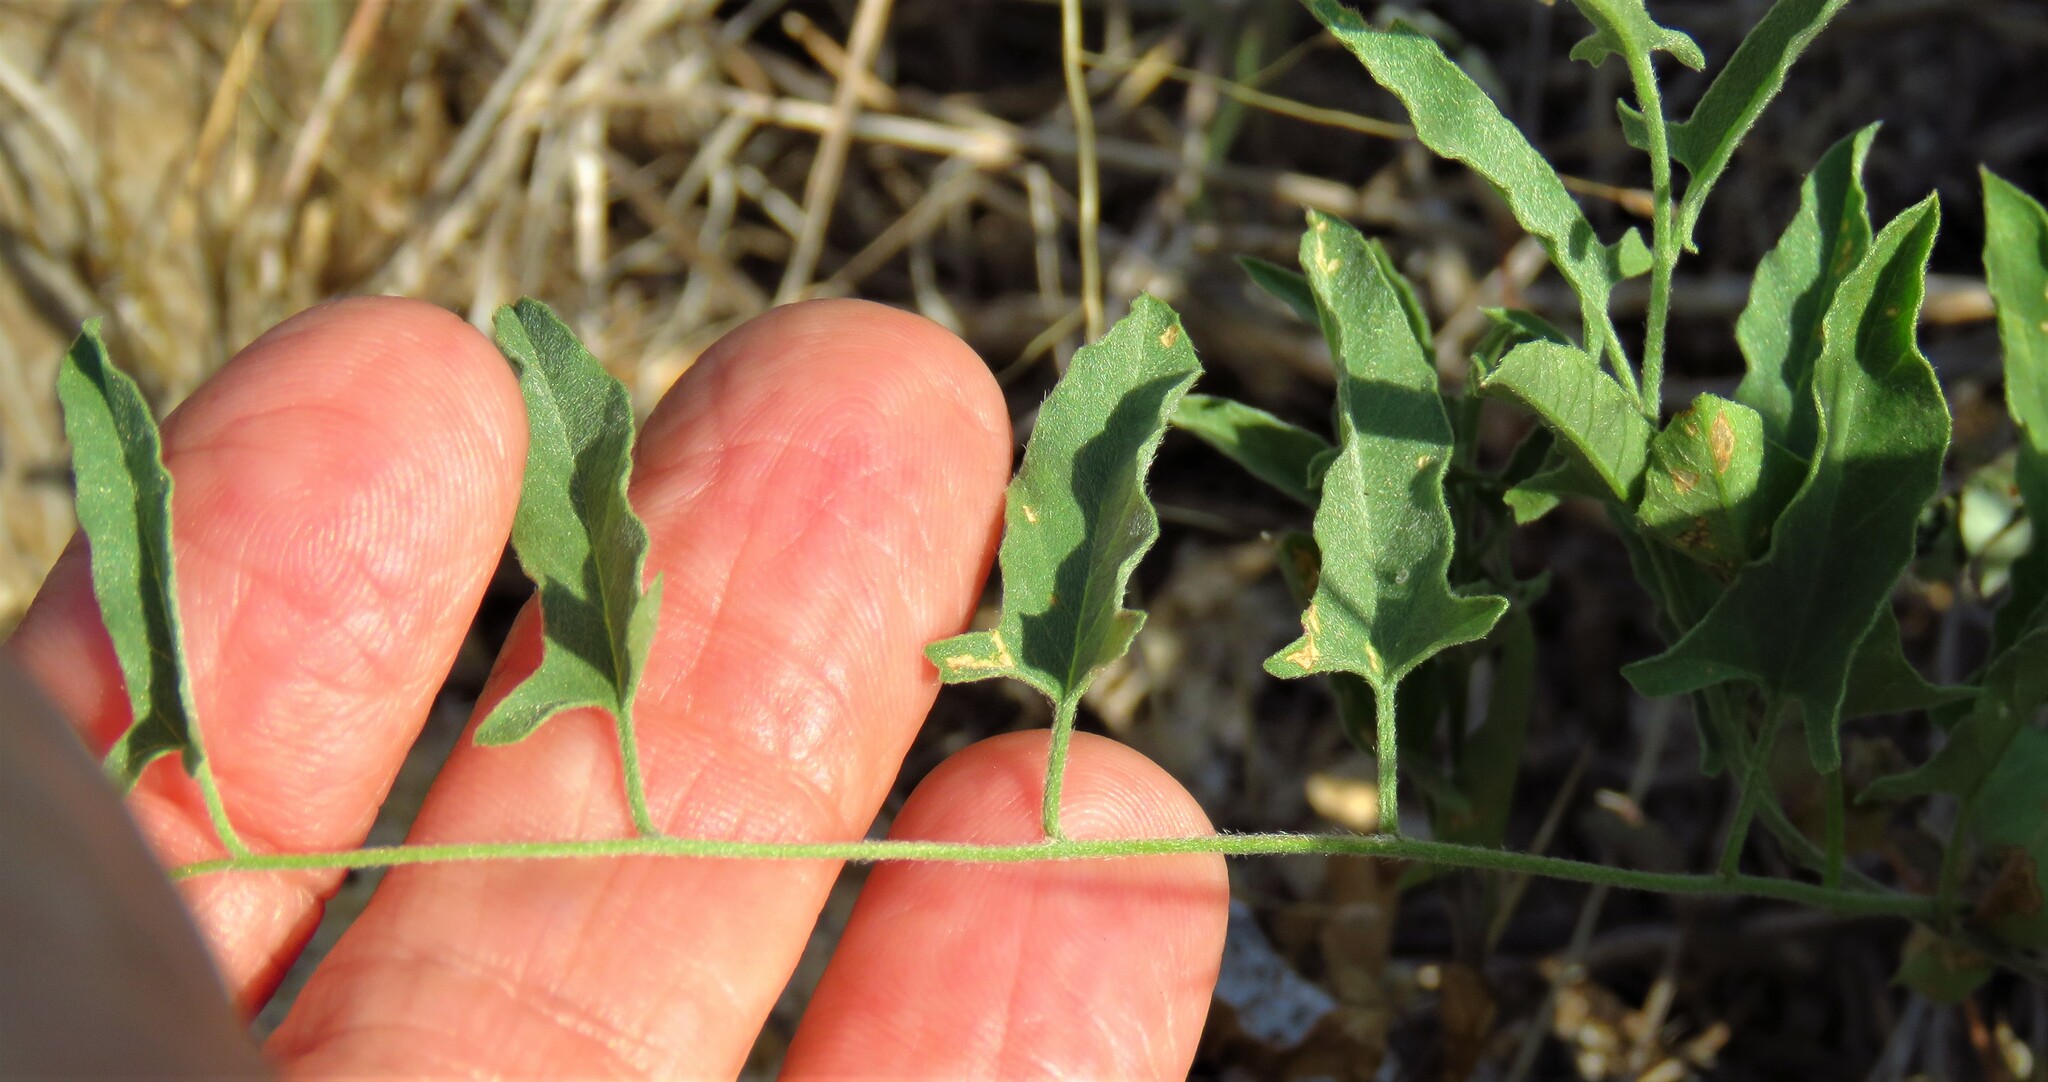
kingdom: Plantae
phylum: Tracheophyta
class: Magnoliopsida
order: Solanales
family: Convolvulaceae
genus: Convolvulus
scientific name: Convolvulus equitans
